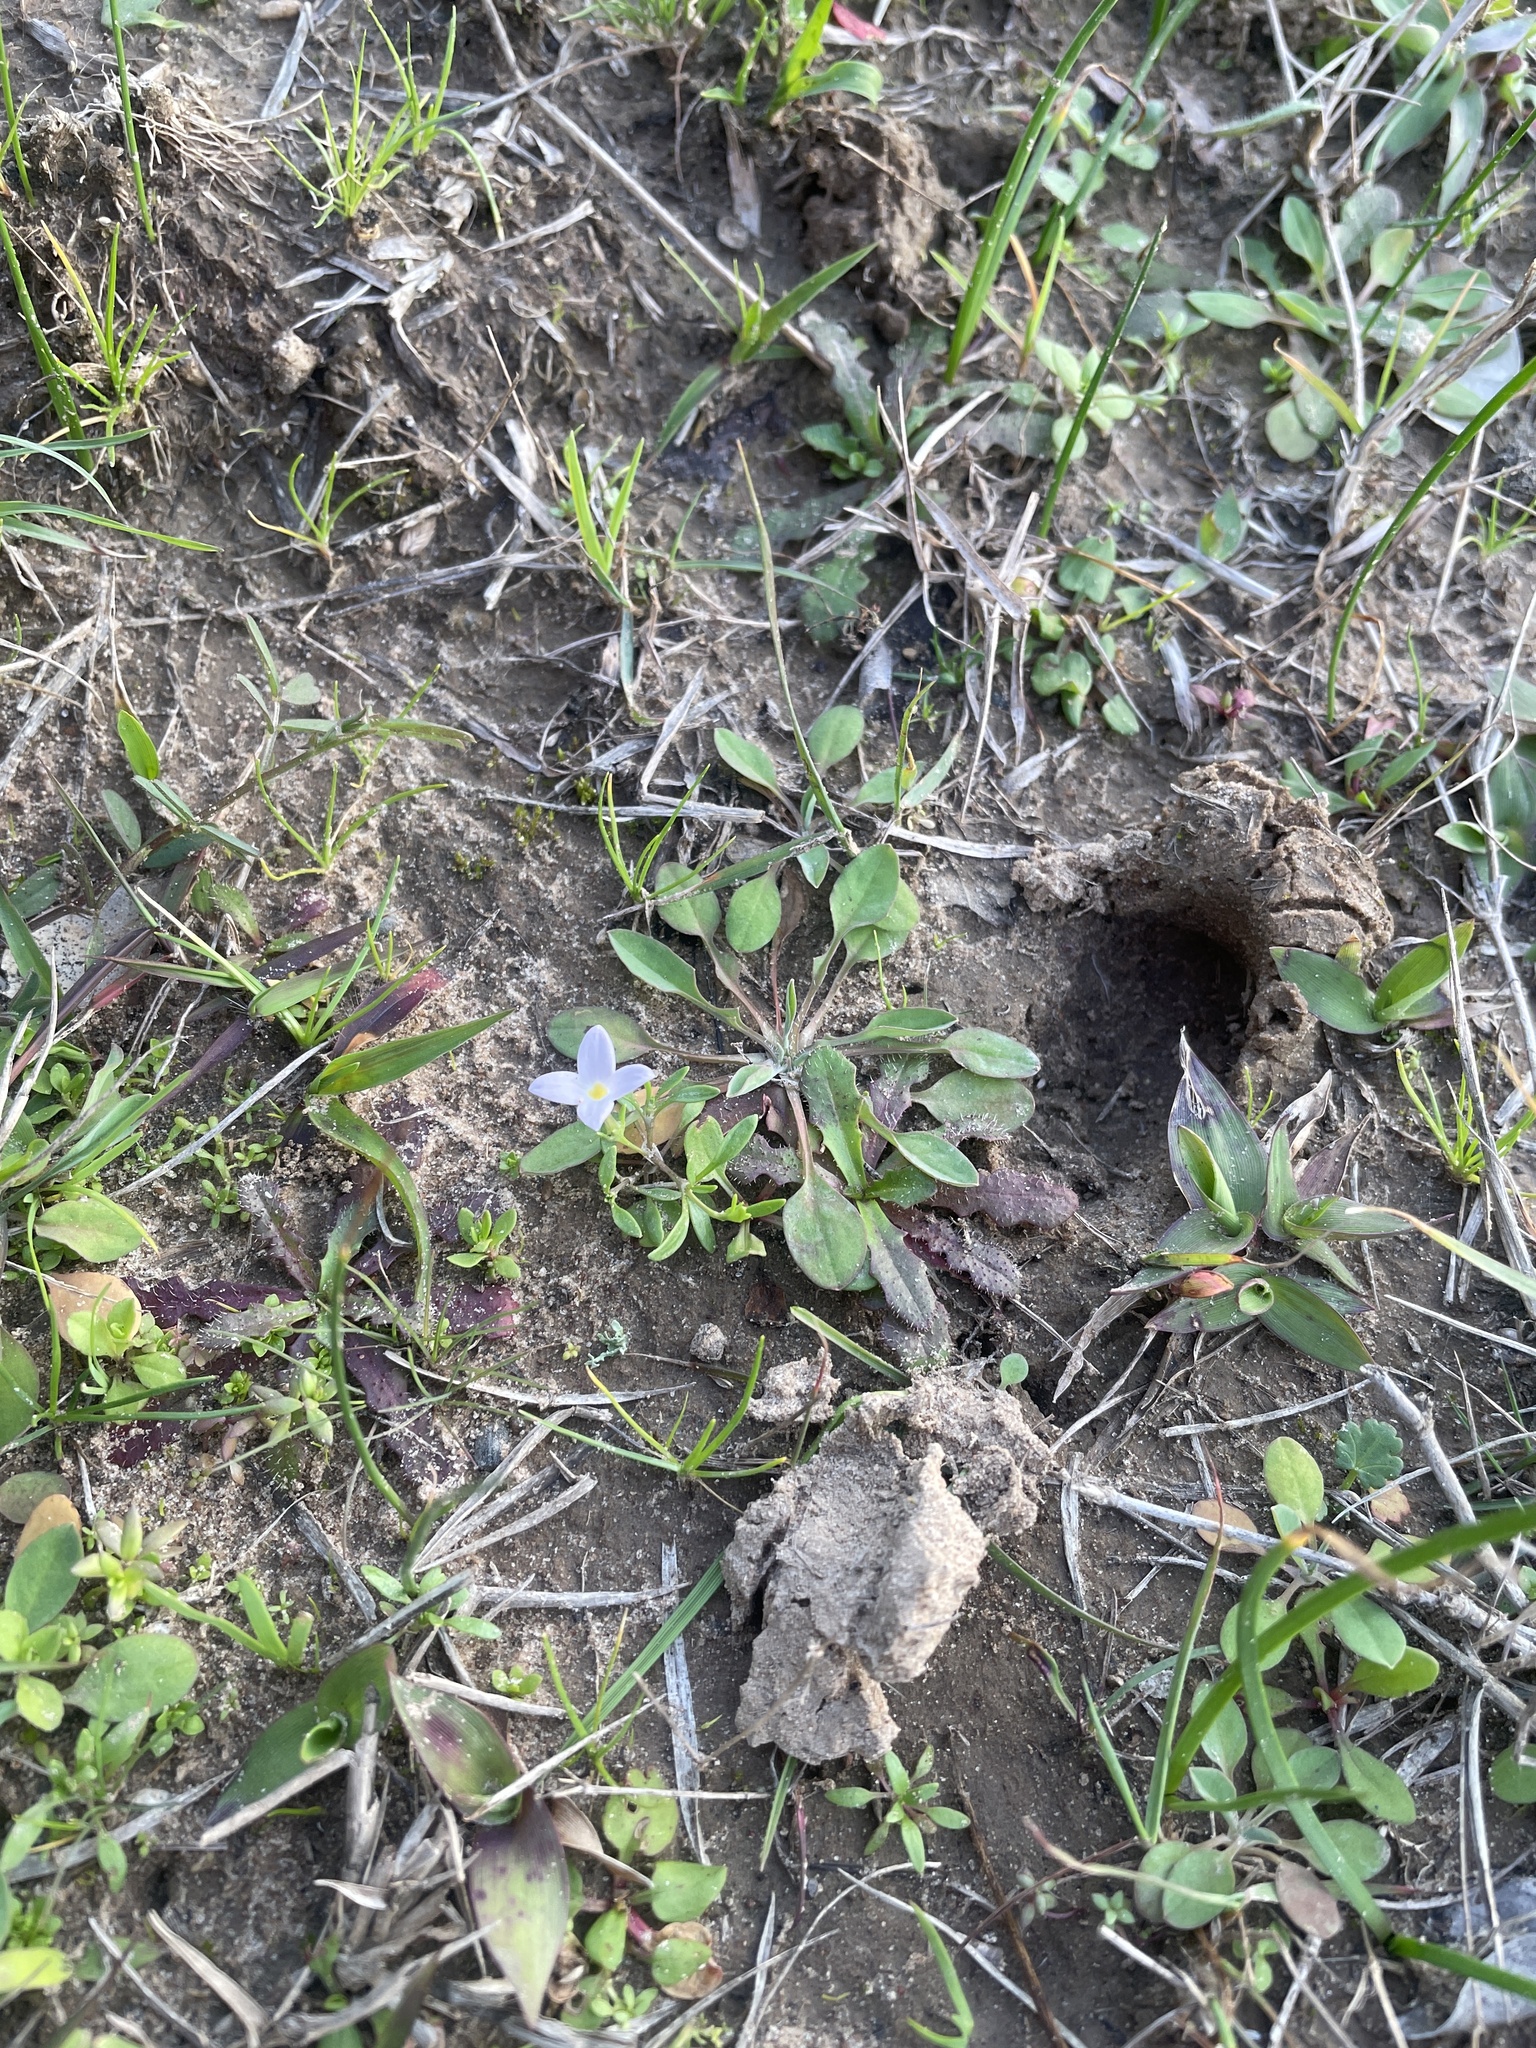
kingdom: Plantae
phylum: Tracheophyta
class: Magnoliopsida
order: Gentianales
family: Rubiaceae
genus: Houstonia
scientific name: Houstonia rosea
